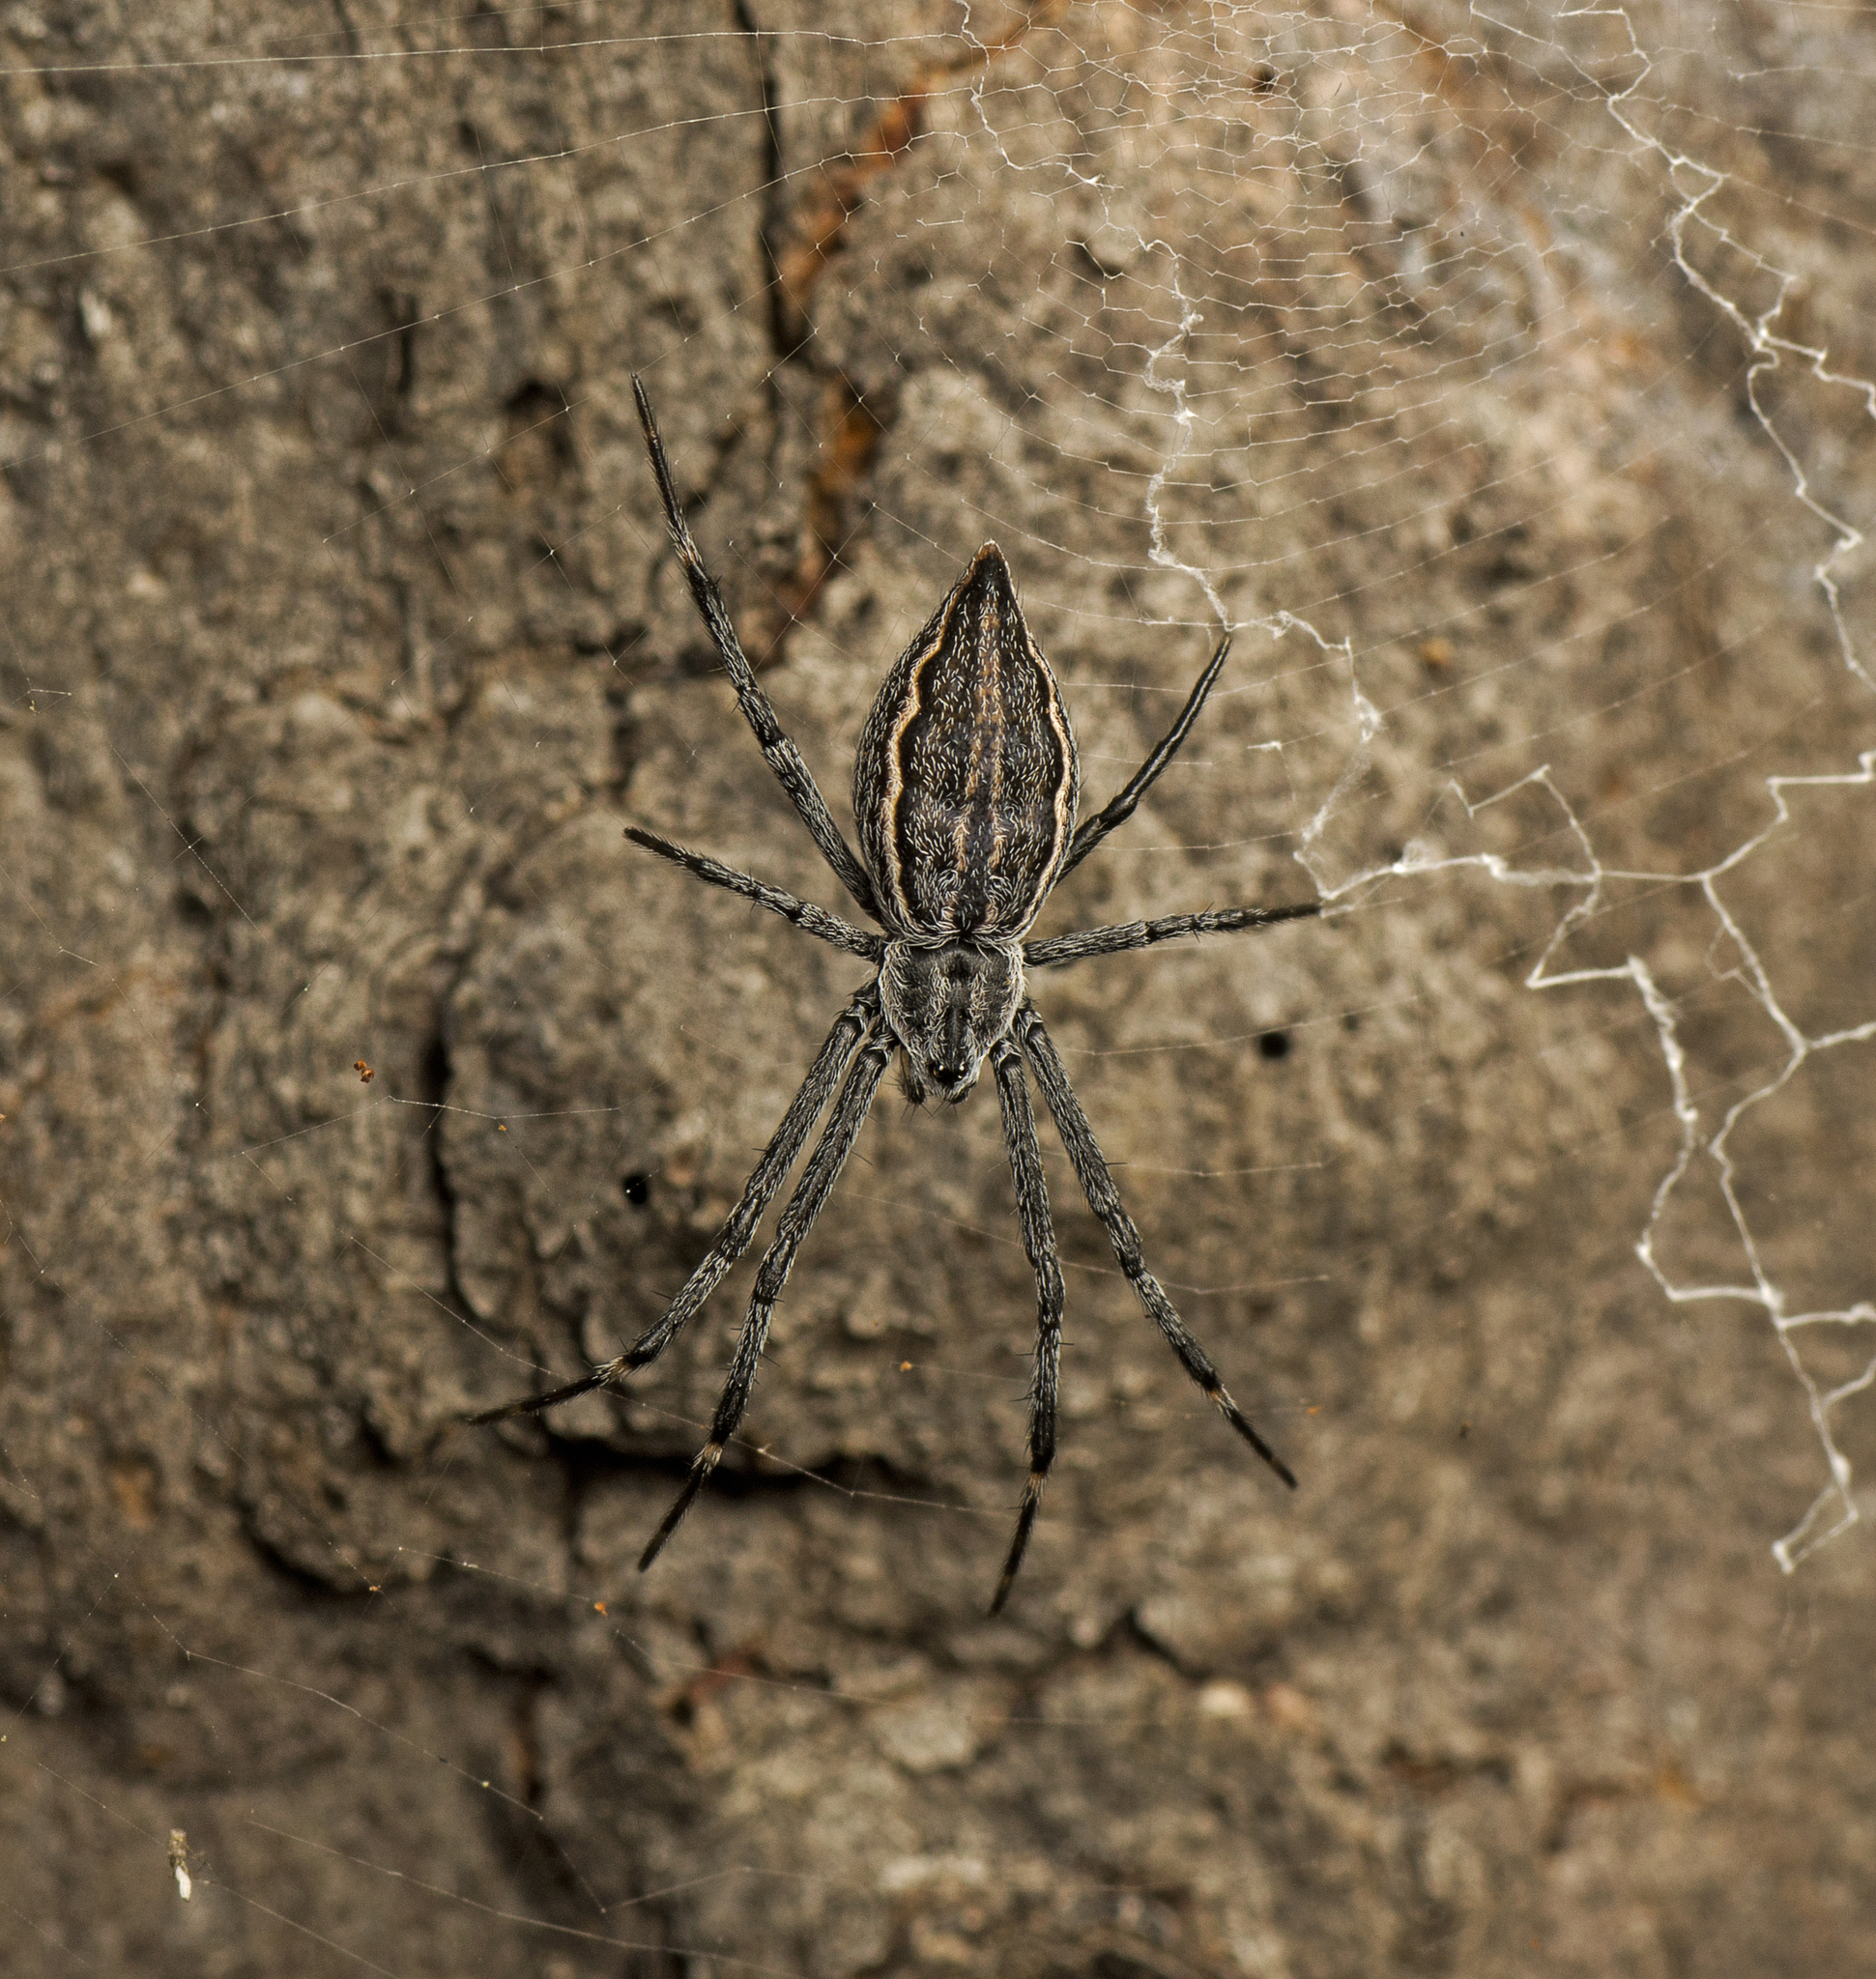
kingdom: Animalia
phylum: Arthropoda
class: Arachnida
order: Araneae
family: Araneidae
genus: Argiope
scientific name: Argiope ocyaloides
